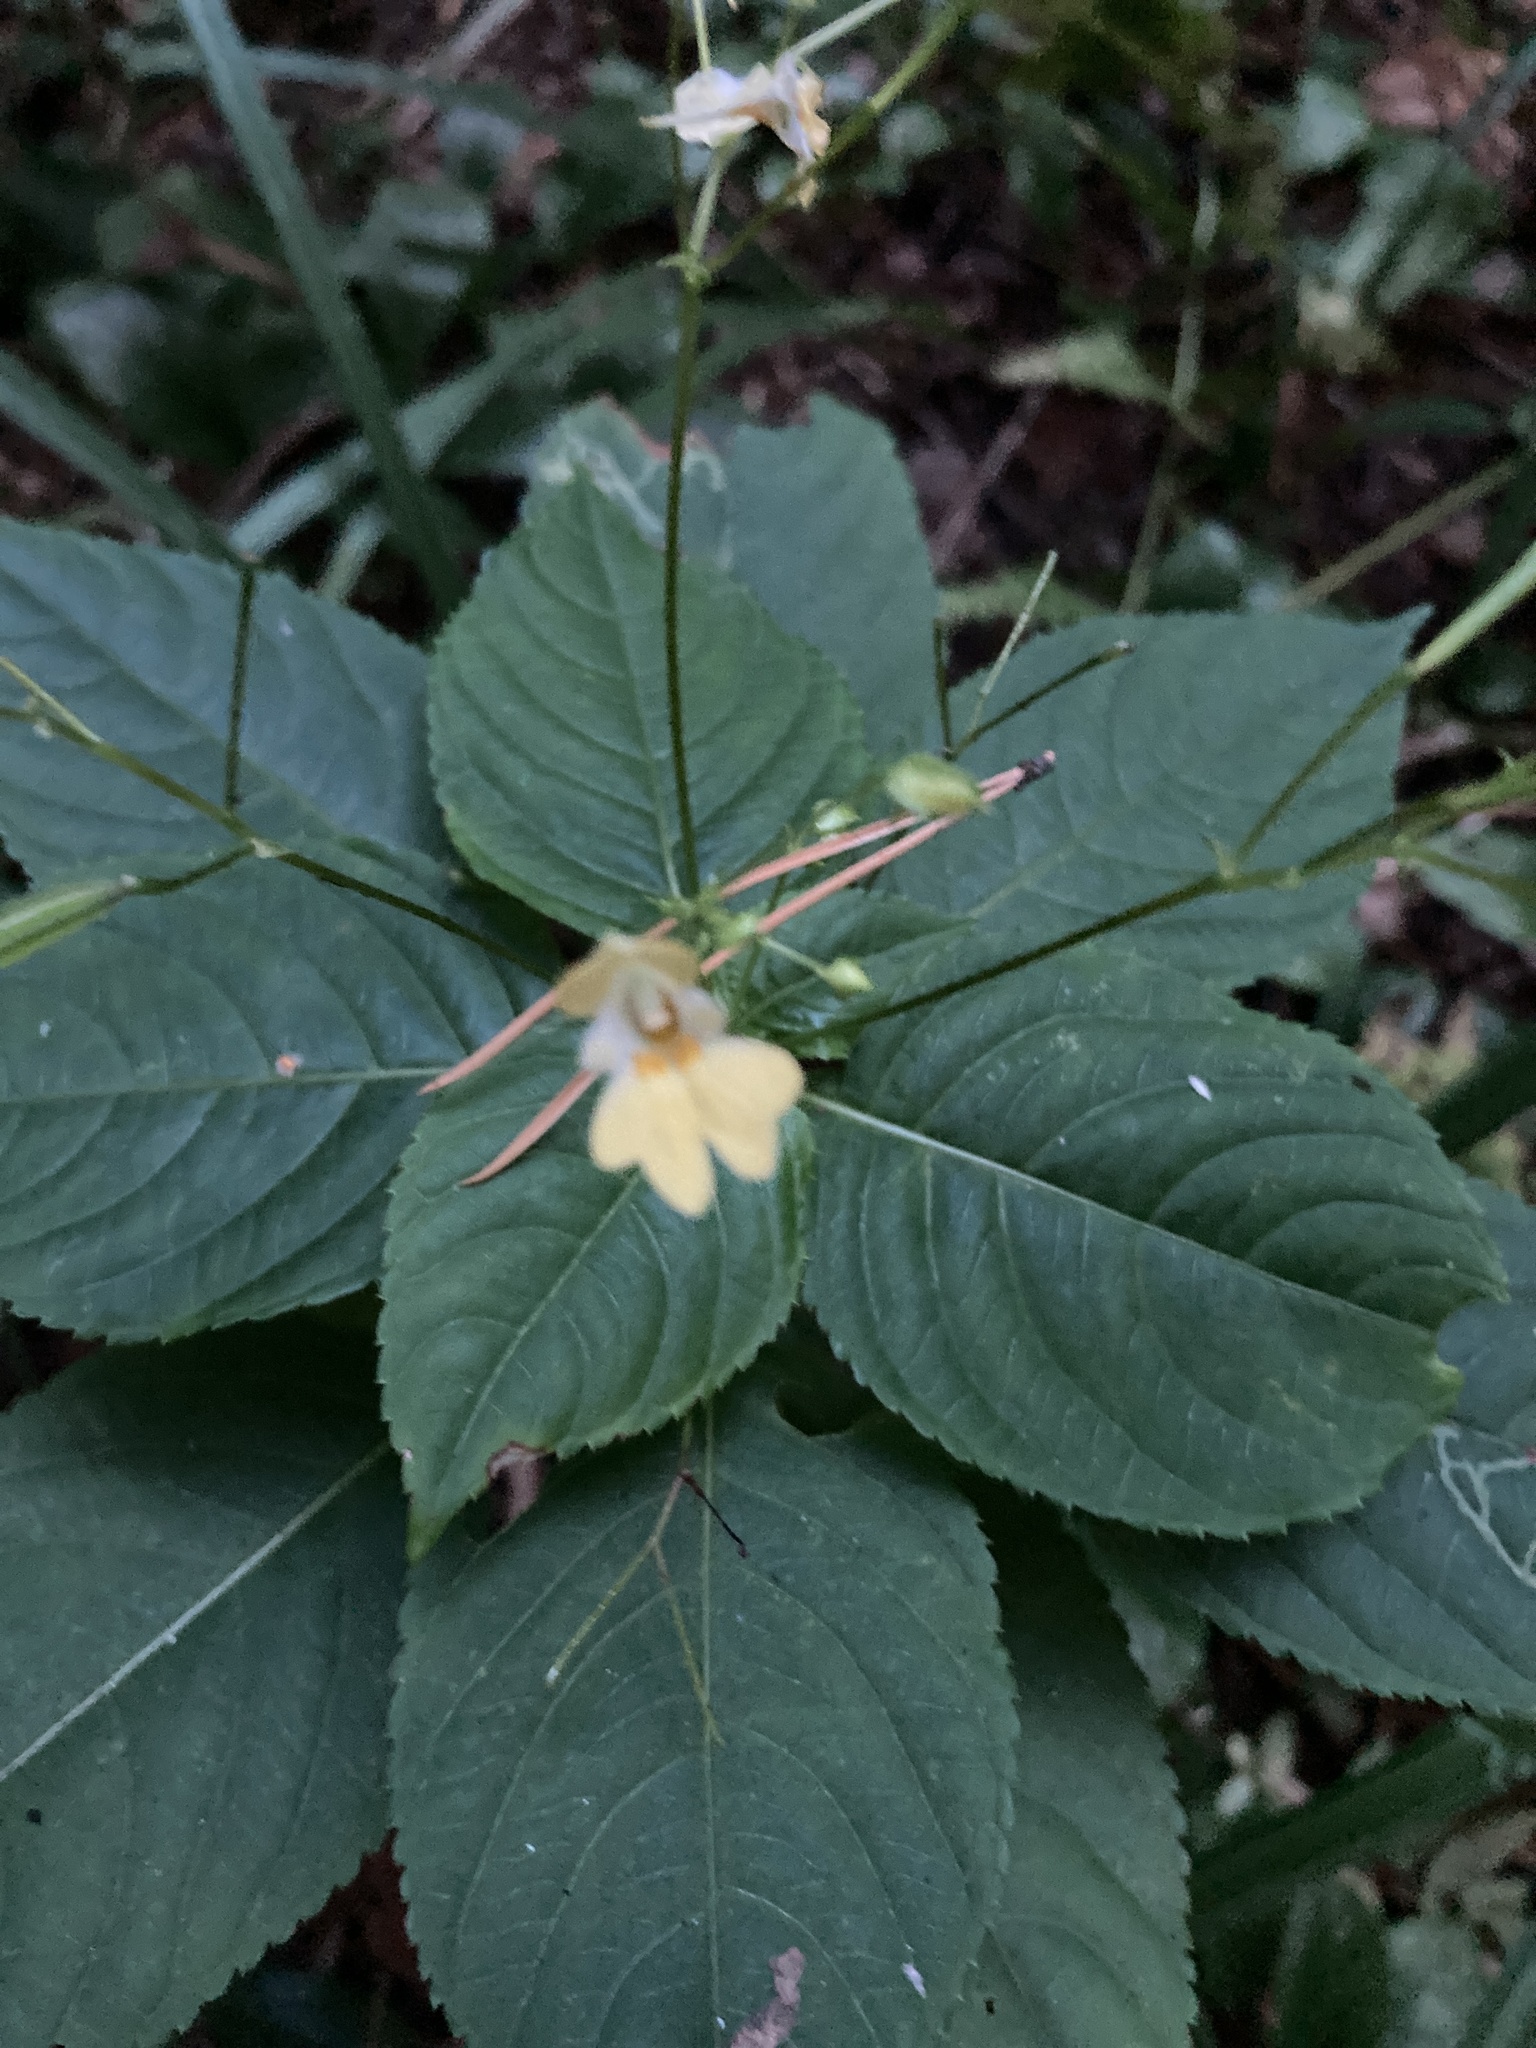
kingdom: Plantae
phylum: Tracheophyta
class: Magnoliopsida
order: Ericales
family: Balsaminaceae
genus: Impatiens
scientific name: Impatiens parviflora
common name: Small balsam
